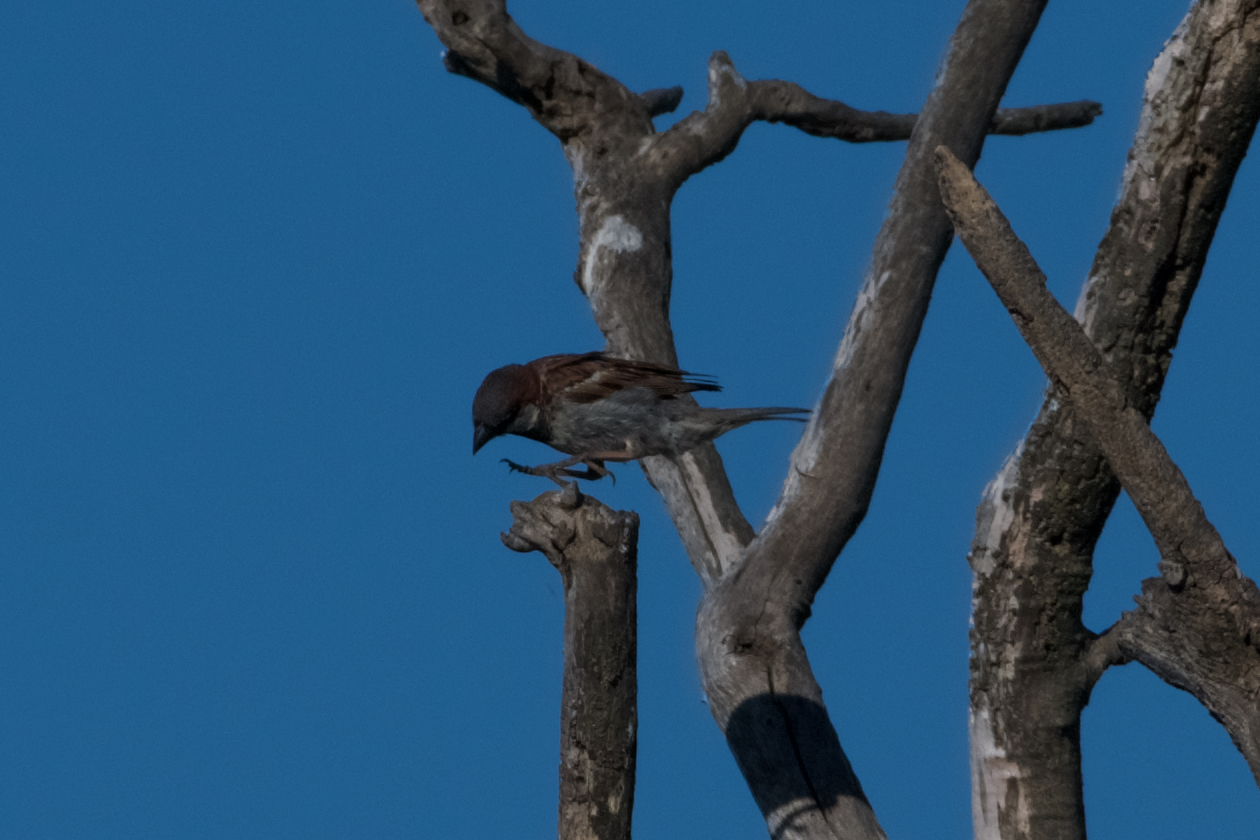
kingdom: Animalia
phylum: Chordata
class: Aves
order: Passeriformes
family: Passeridae
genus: Passer
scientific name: Passer domesticus
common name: House sparrow
